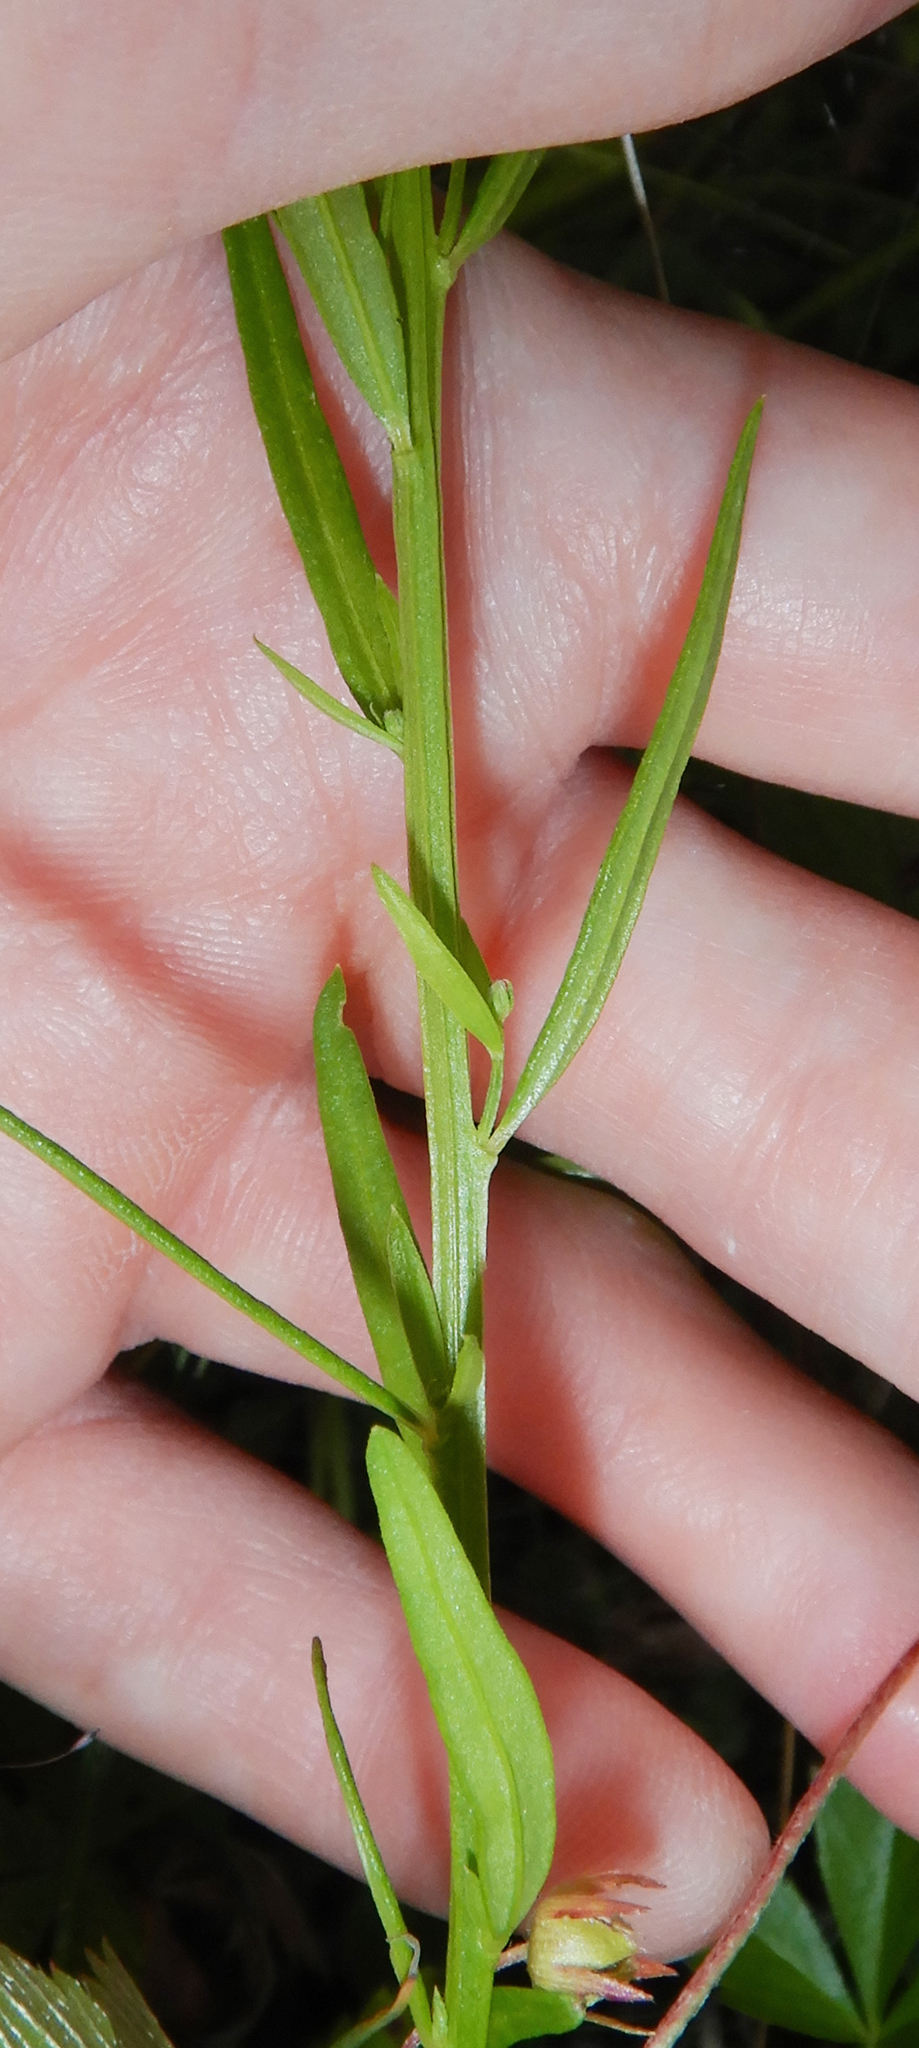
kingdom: Plantae
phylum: Tracheophyta
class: Magnoliopsida
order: Fabales
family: Polygalaceae
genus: Polygala
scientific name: Polygala sanguinea
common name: Blood milkwort
